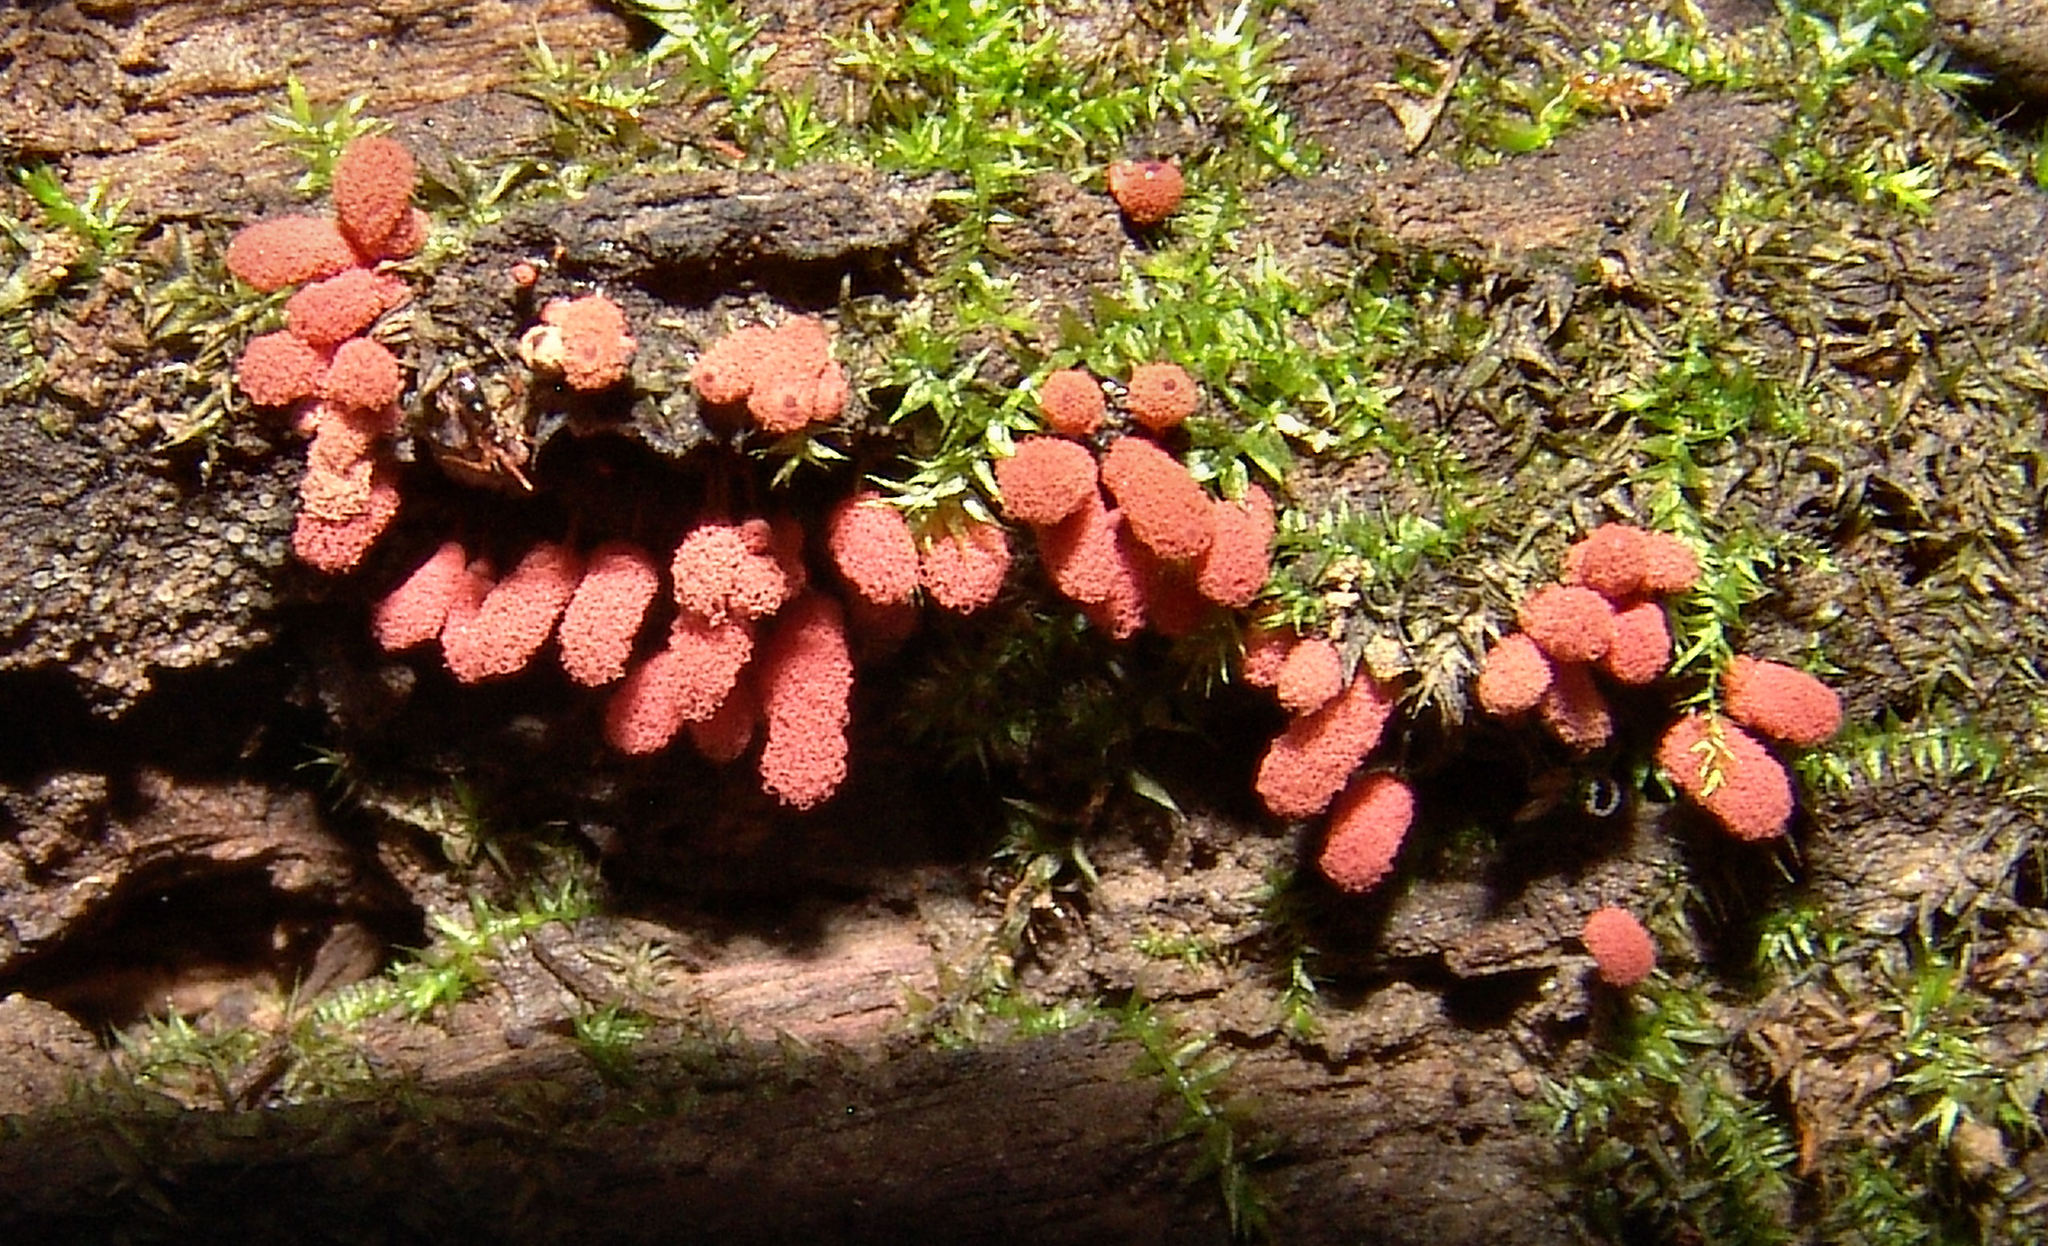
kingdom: Protozoa
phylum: Mycetozoa
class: Myxomycetes
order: Trichiales
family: Arcyriaceae
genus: Arcyria
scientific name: Arcyria denudata
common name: Carnival candy slime mold
